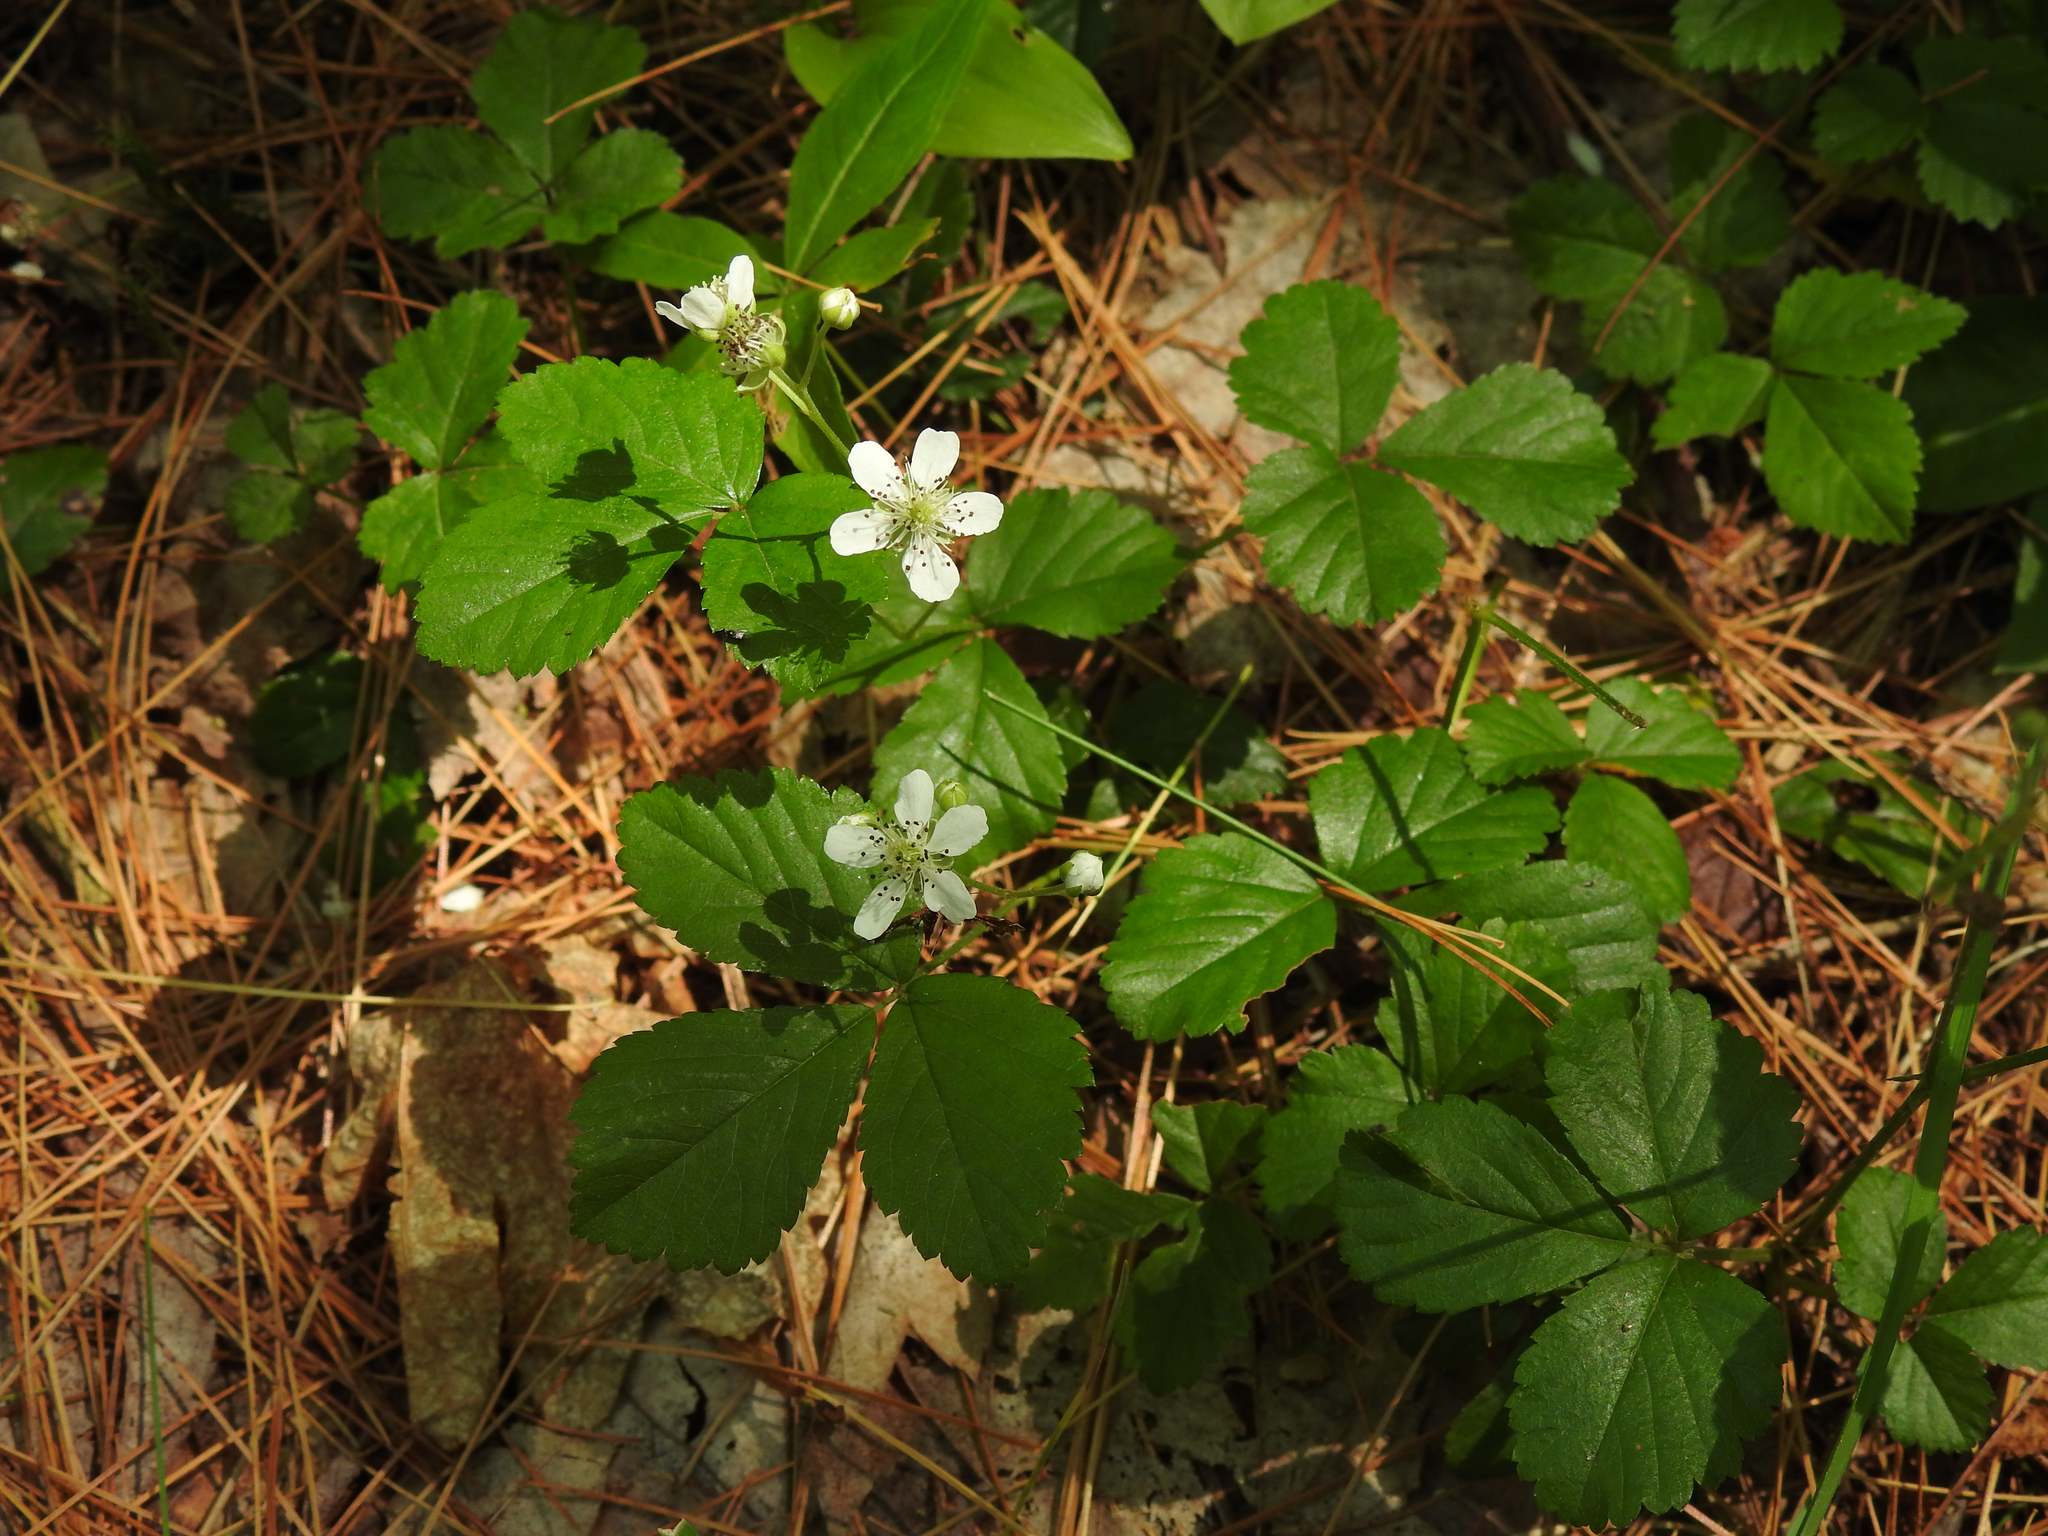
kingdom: Plantae
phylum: Tracheophyta
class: Magnoliopsida
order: Rosales
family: Rosaceae
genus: Rubus
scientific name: Rubus hispidus
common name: Running blackberry
